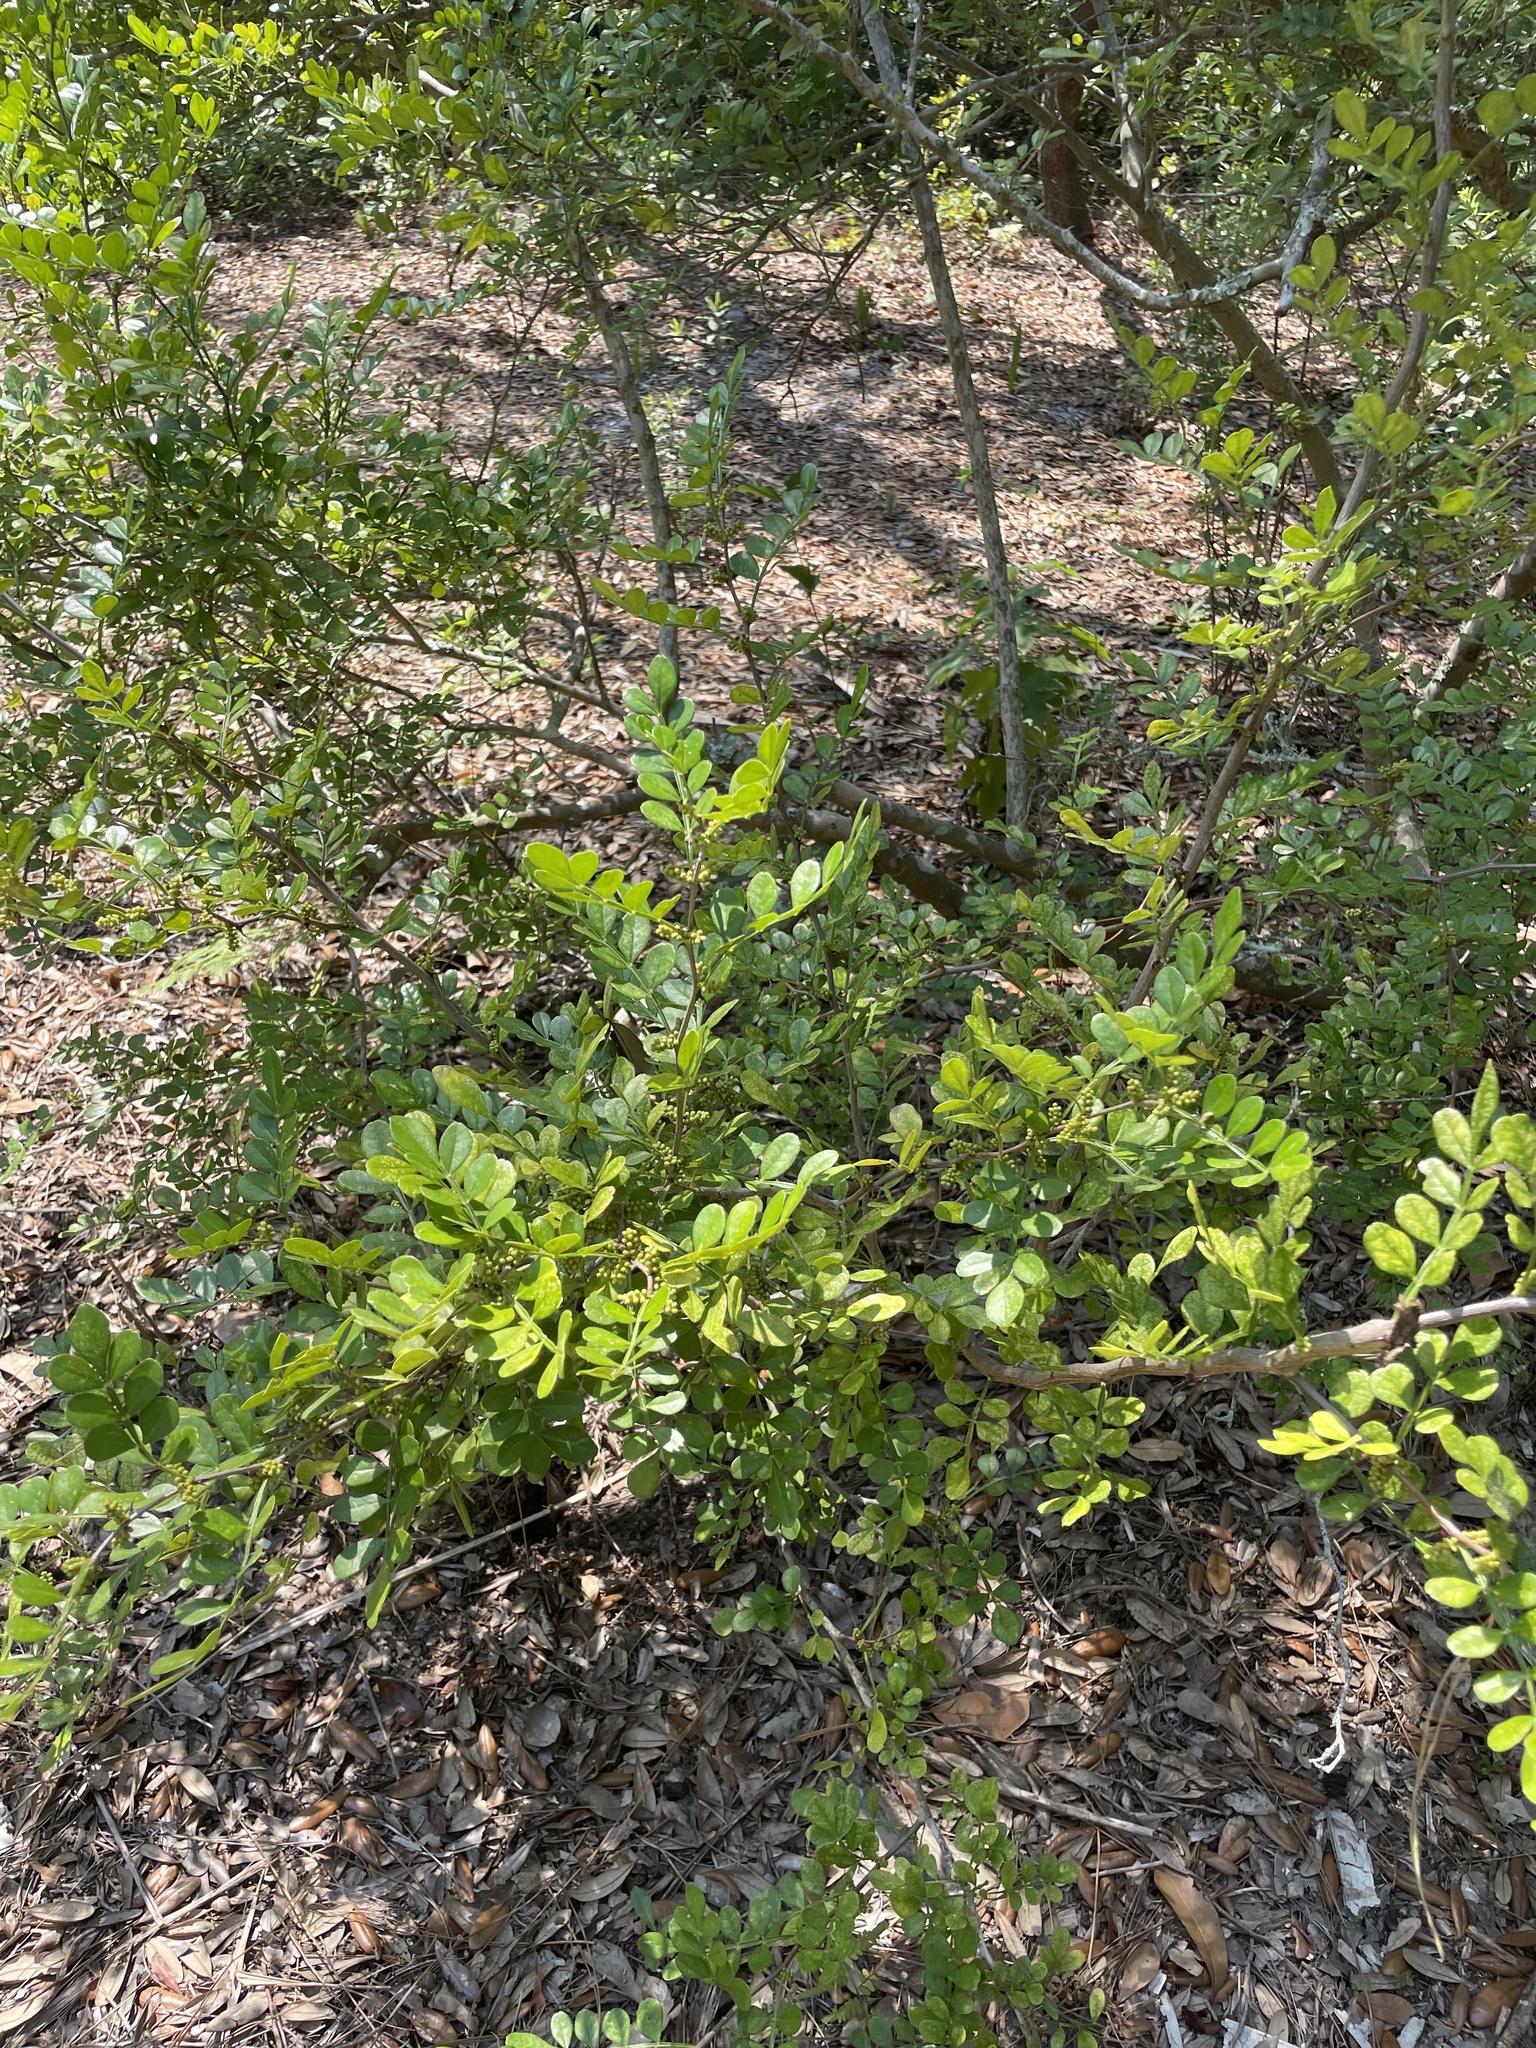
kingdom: Plantae
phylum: Tracheophyta
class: Magnoliopsida
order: Sapindales
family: Rutaceae
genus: Zanthoxylum
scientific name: Zanthoxylum fagara
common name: Lime prickly-ash
